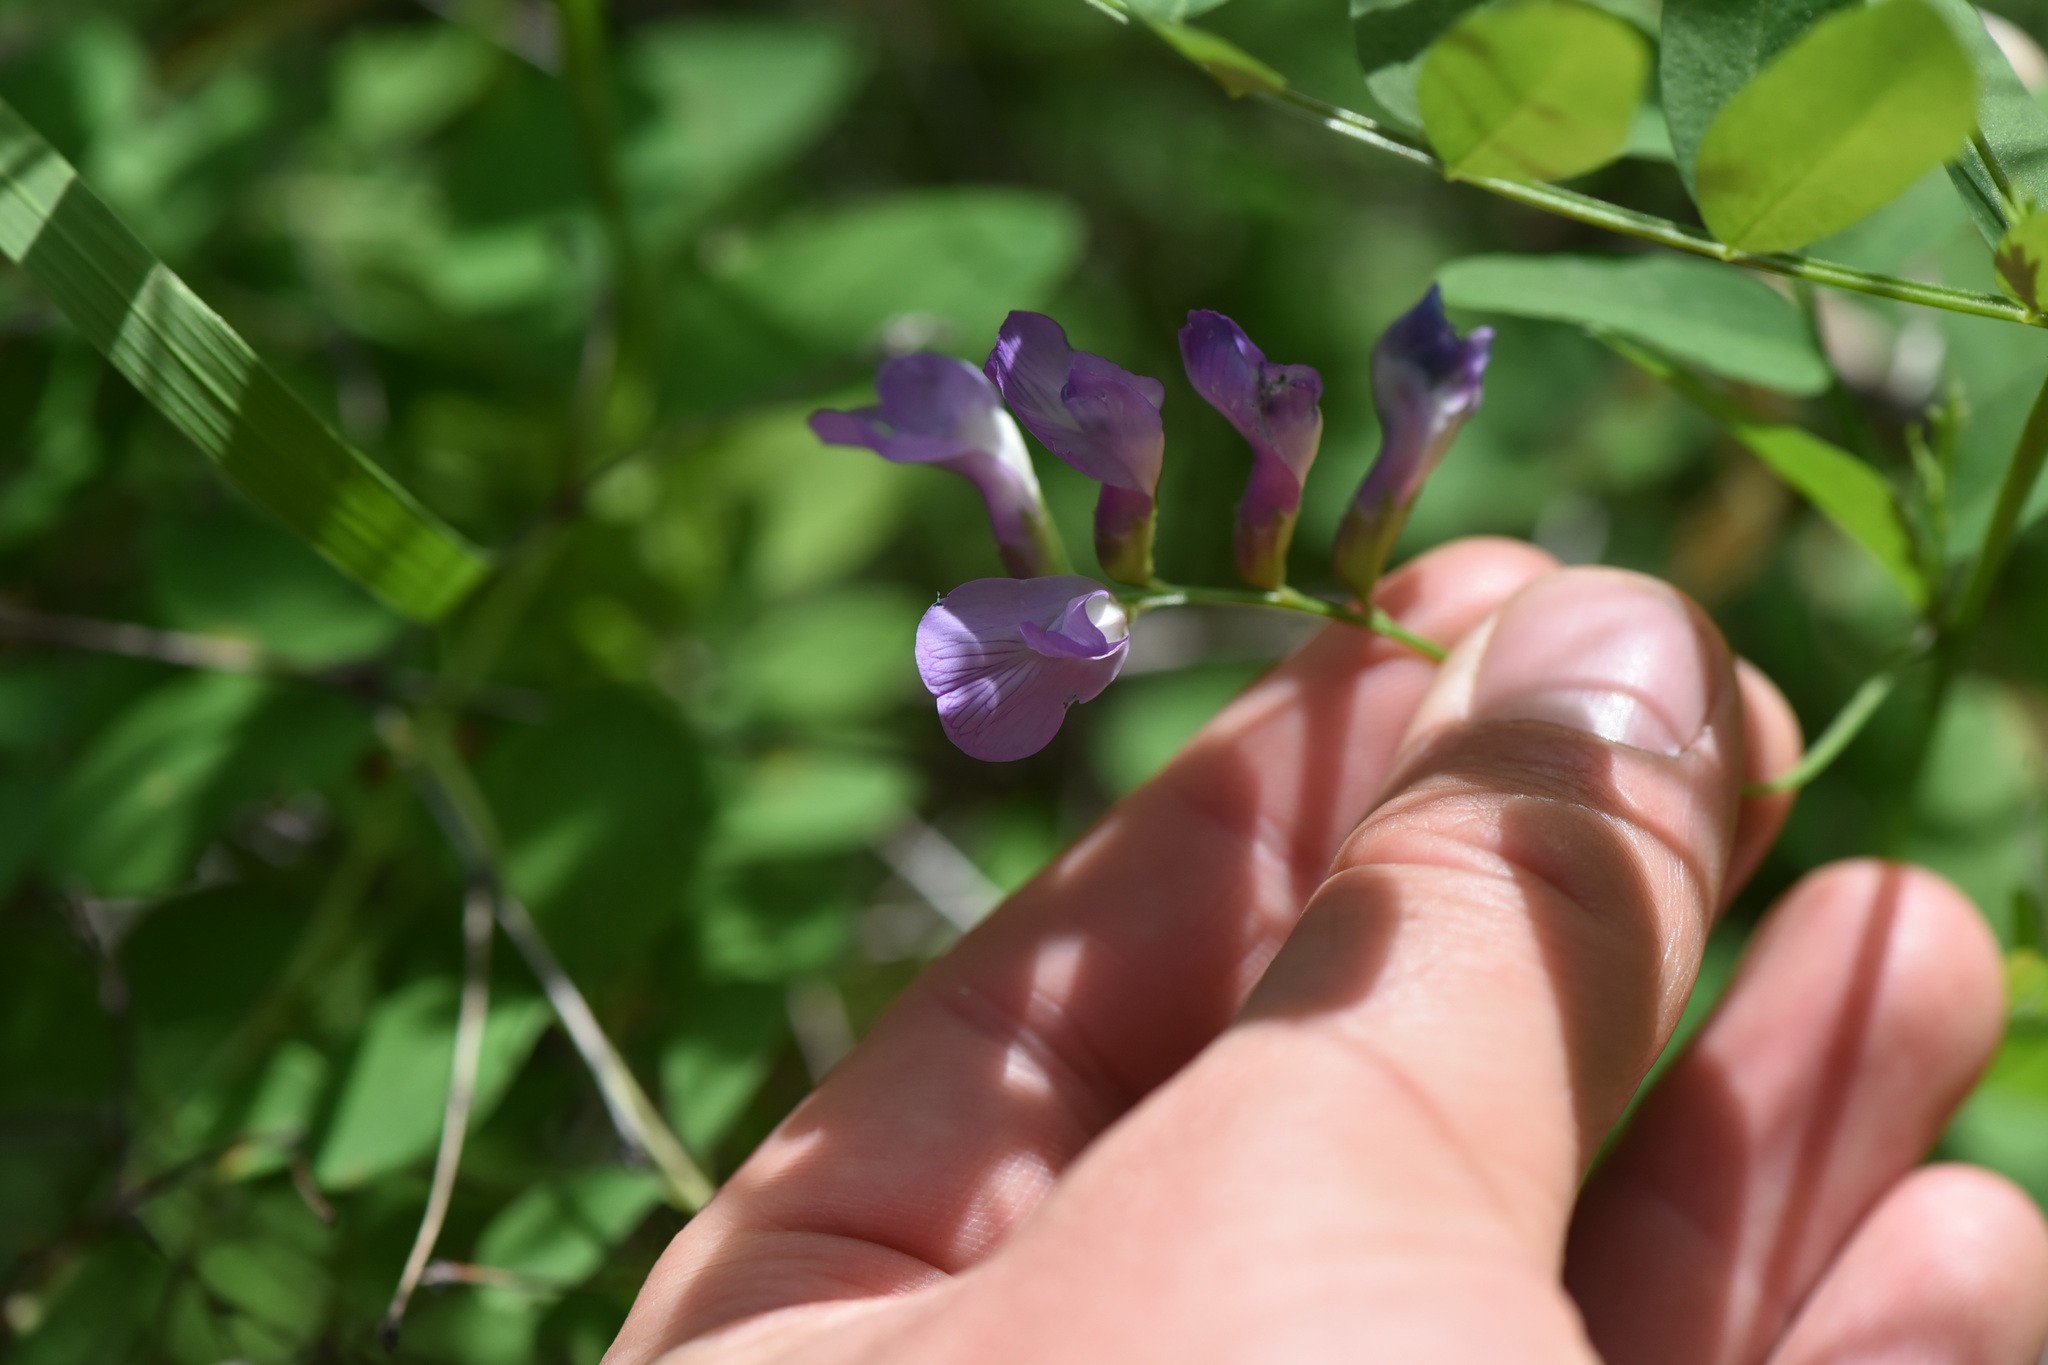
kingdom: Plantae
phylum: Tracheophyta
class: Magnoliopsida
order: Fabales
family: Fabaceae
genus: Vicia
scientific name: Vicia americana
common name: American vetch
